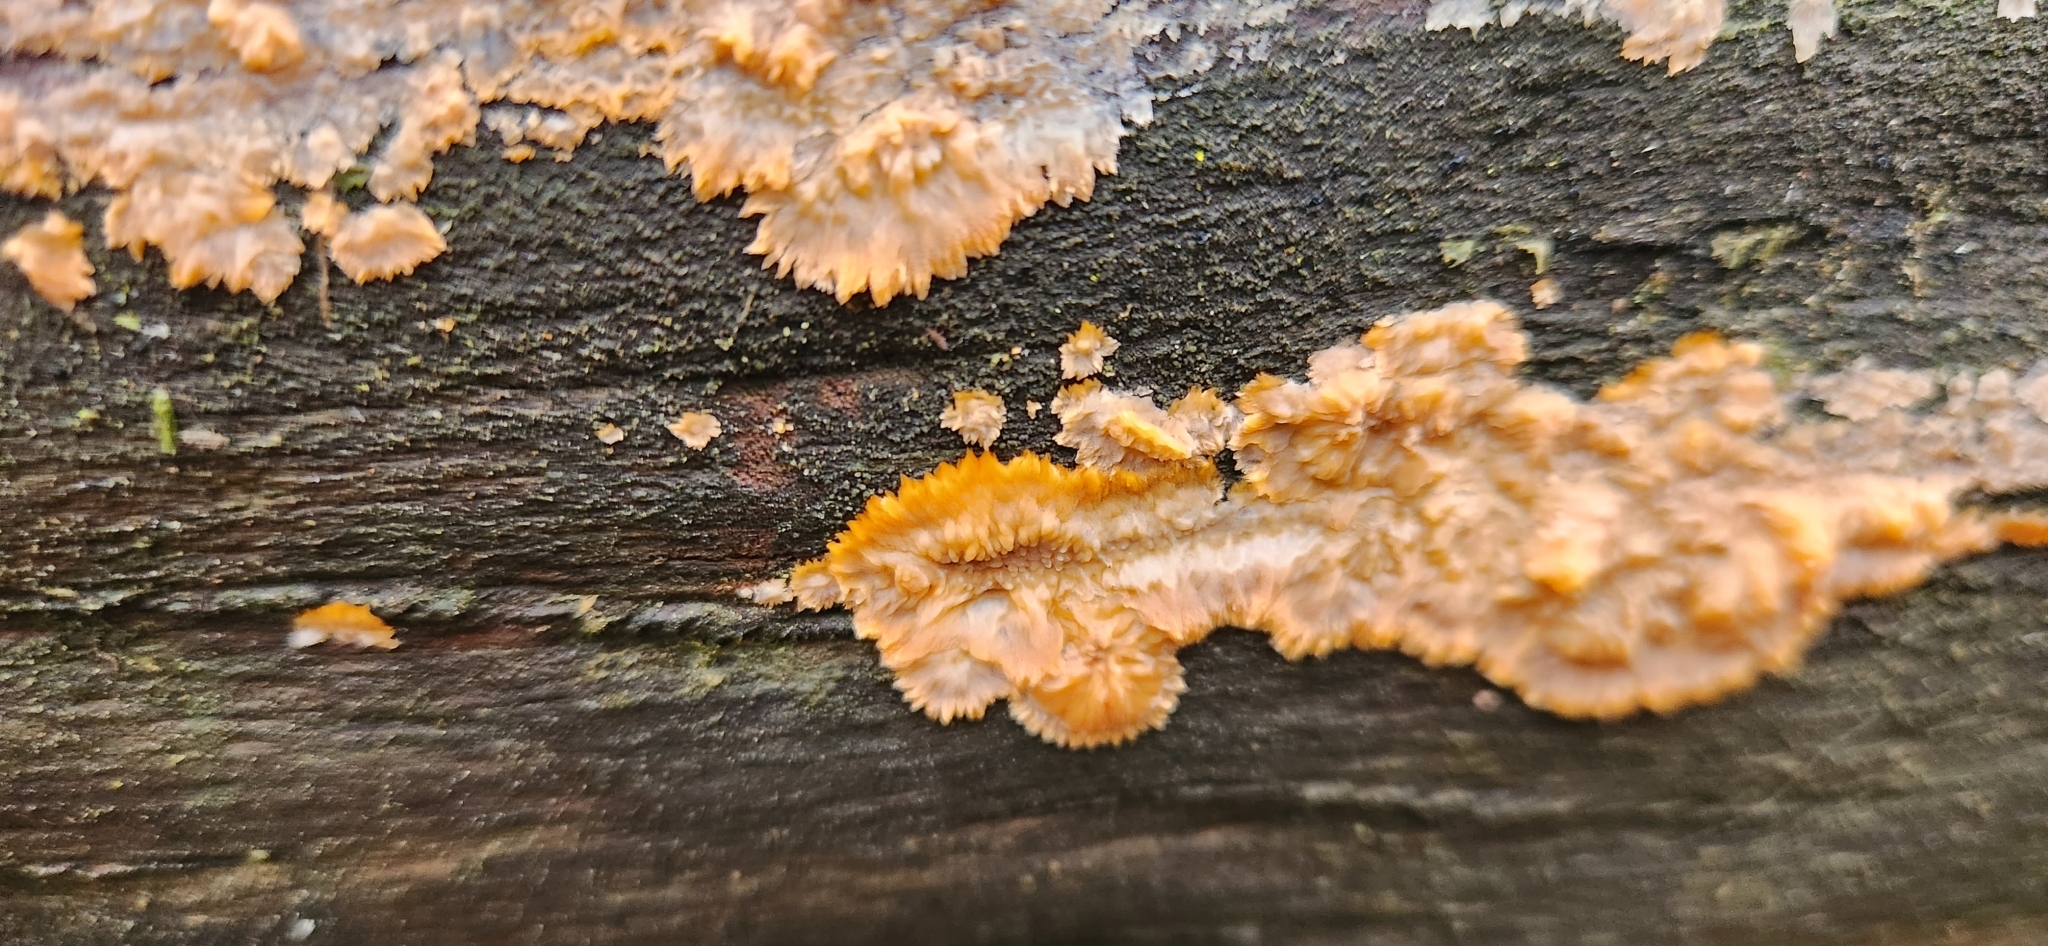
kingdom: Fungi
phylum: Basidiomycota
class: Agaricomycetes
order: Polyporales
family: Meruliaceae
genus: Phlebia
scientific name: Phlebia radiata
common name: Wrinkled crust
